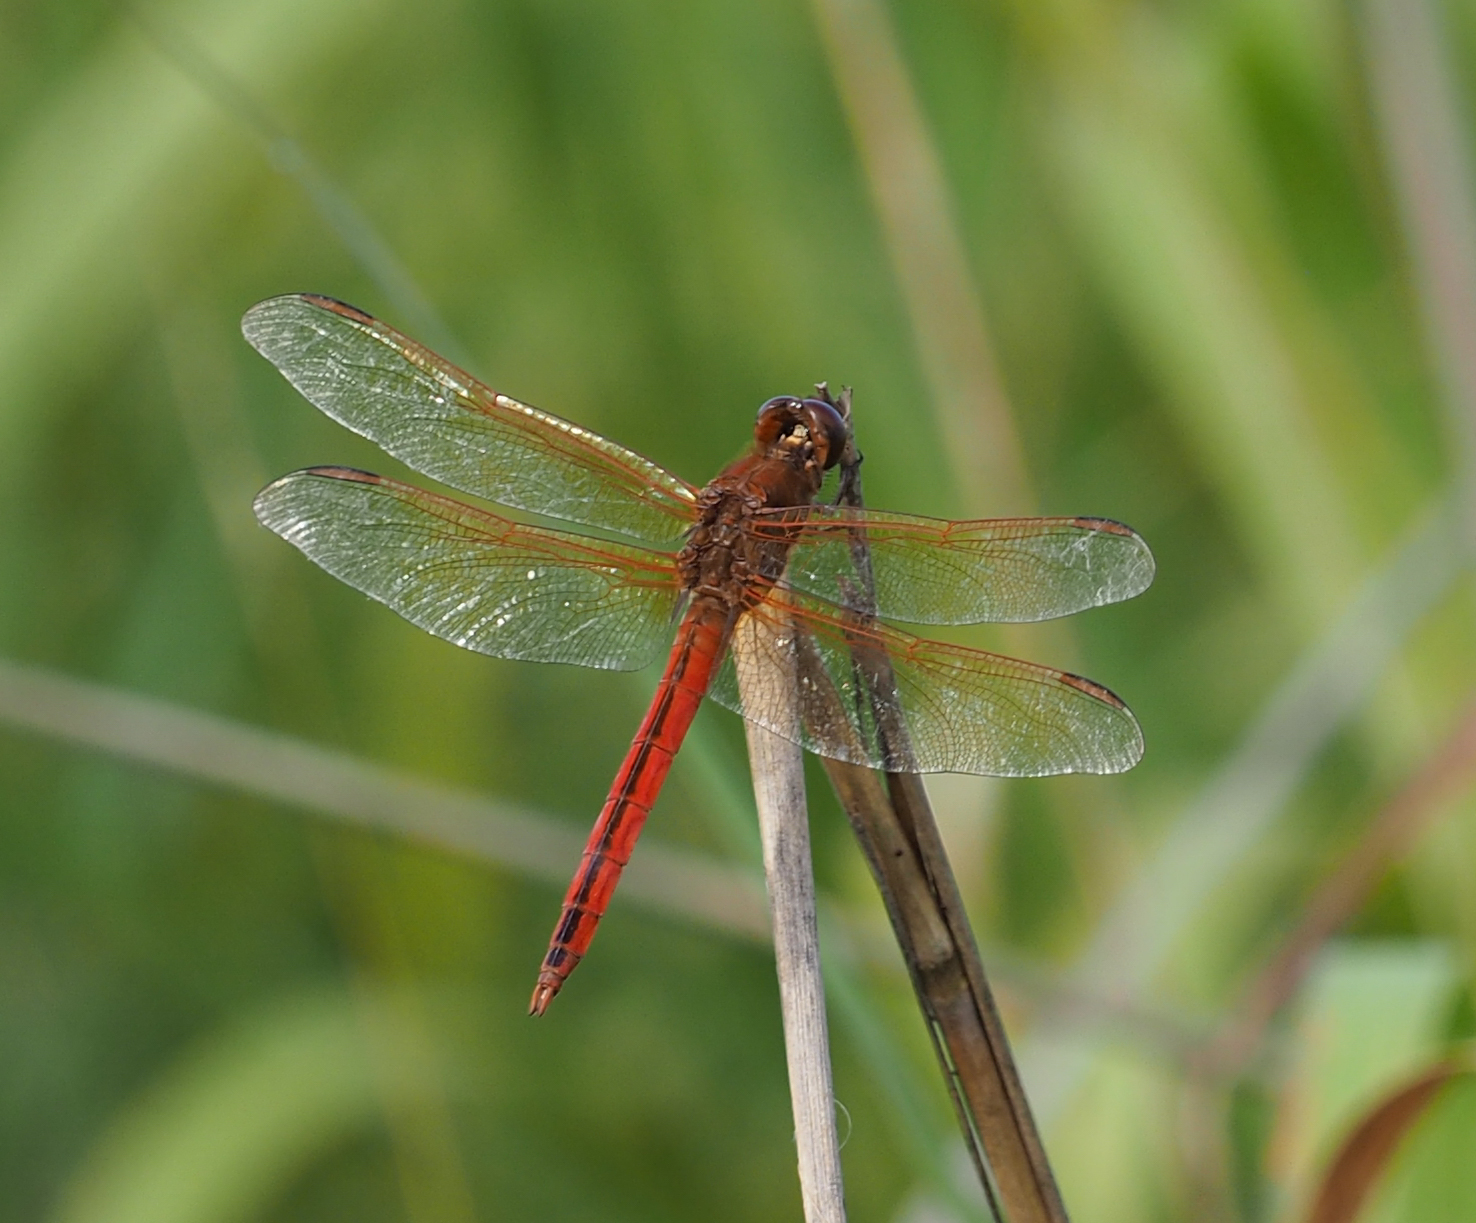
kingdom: Animalia
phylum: Arthropoda
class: Insecta
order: Odonata
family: Libellulidae
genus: Libellula
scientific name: Libellula needhami
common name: Needham's skimmer
